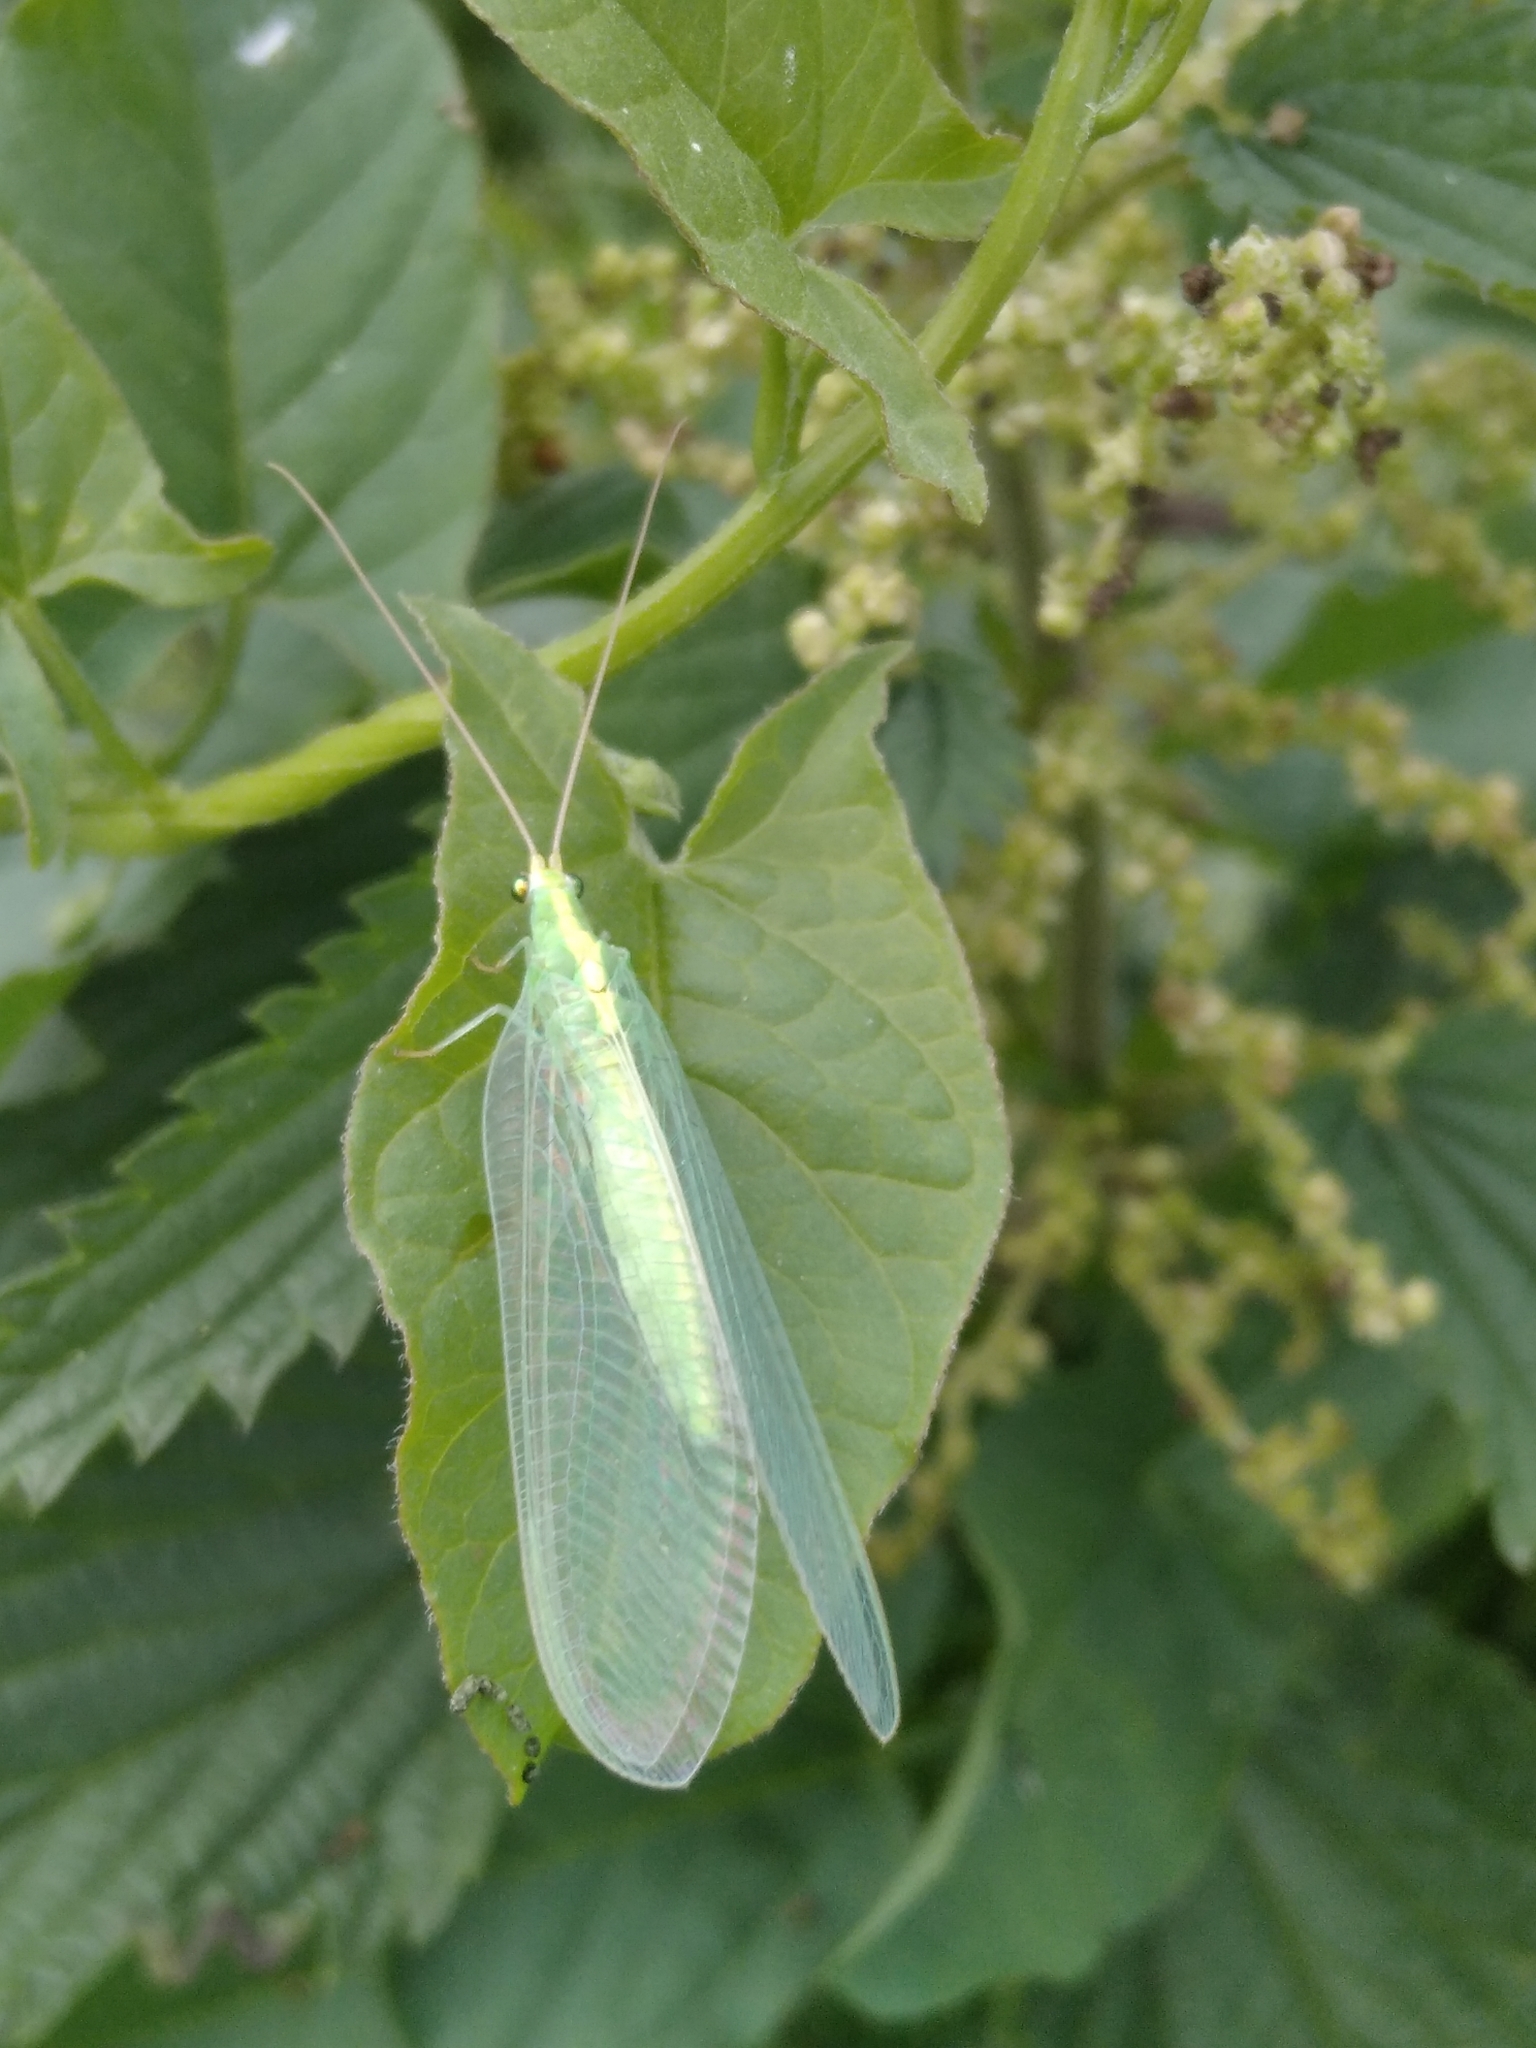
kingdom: Animalia
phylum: Arthropoda
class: Insecta
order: Neuroptera
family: Chrysopidae
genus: Nineta
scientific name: Nineta flava
